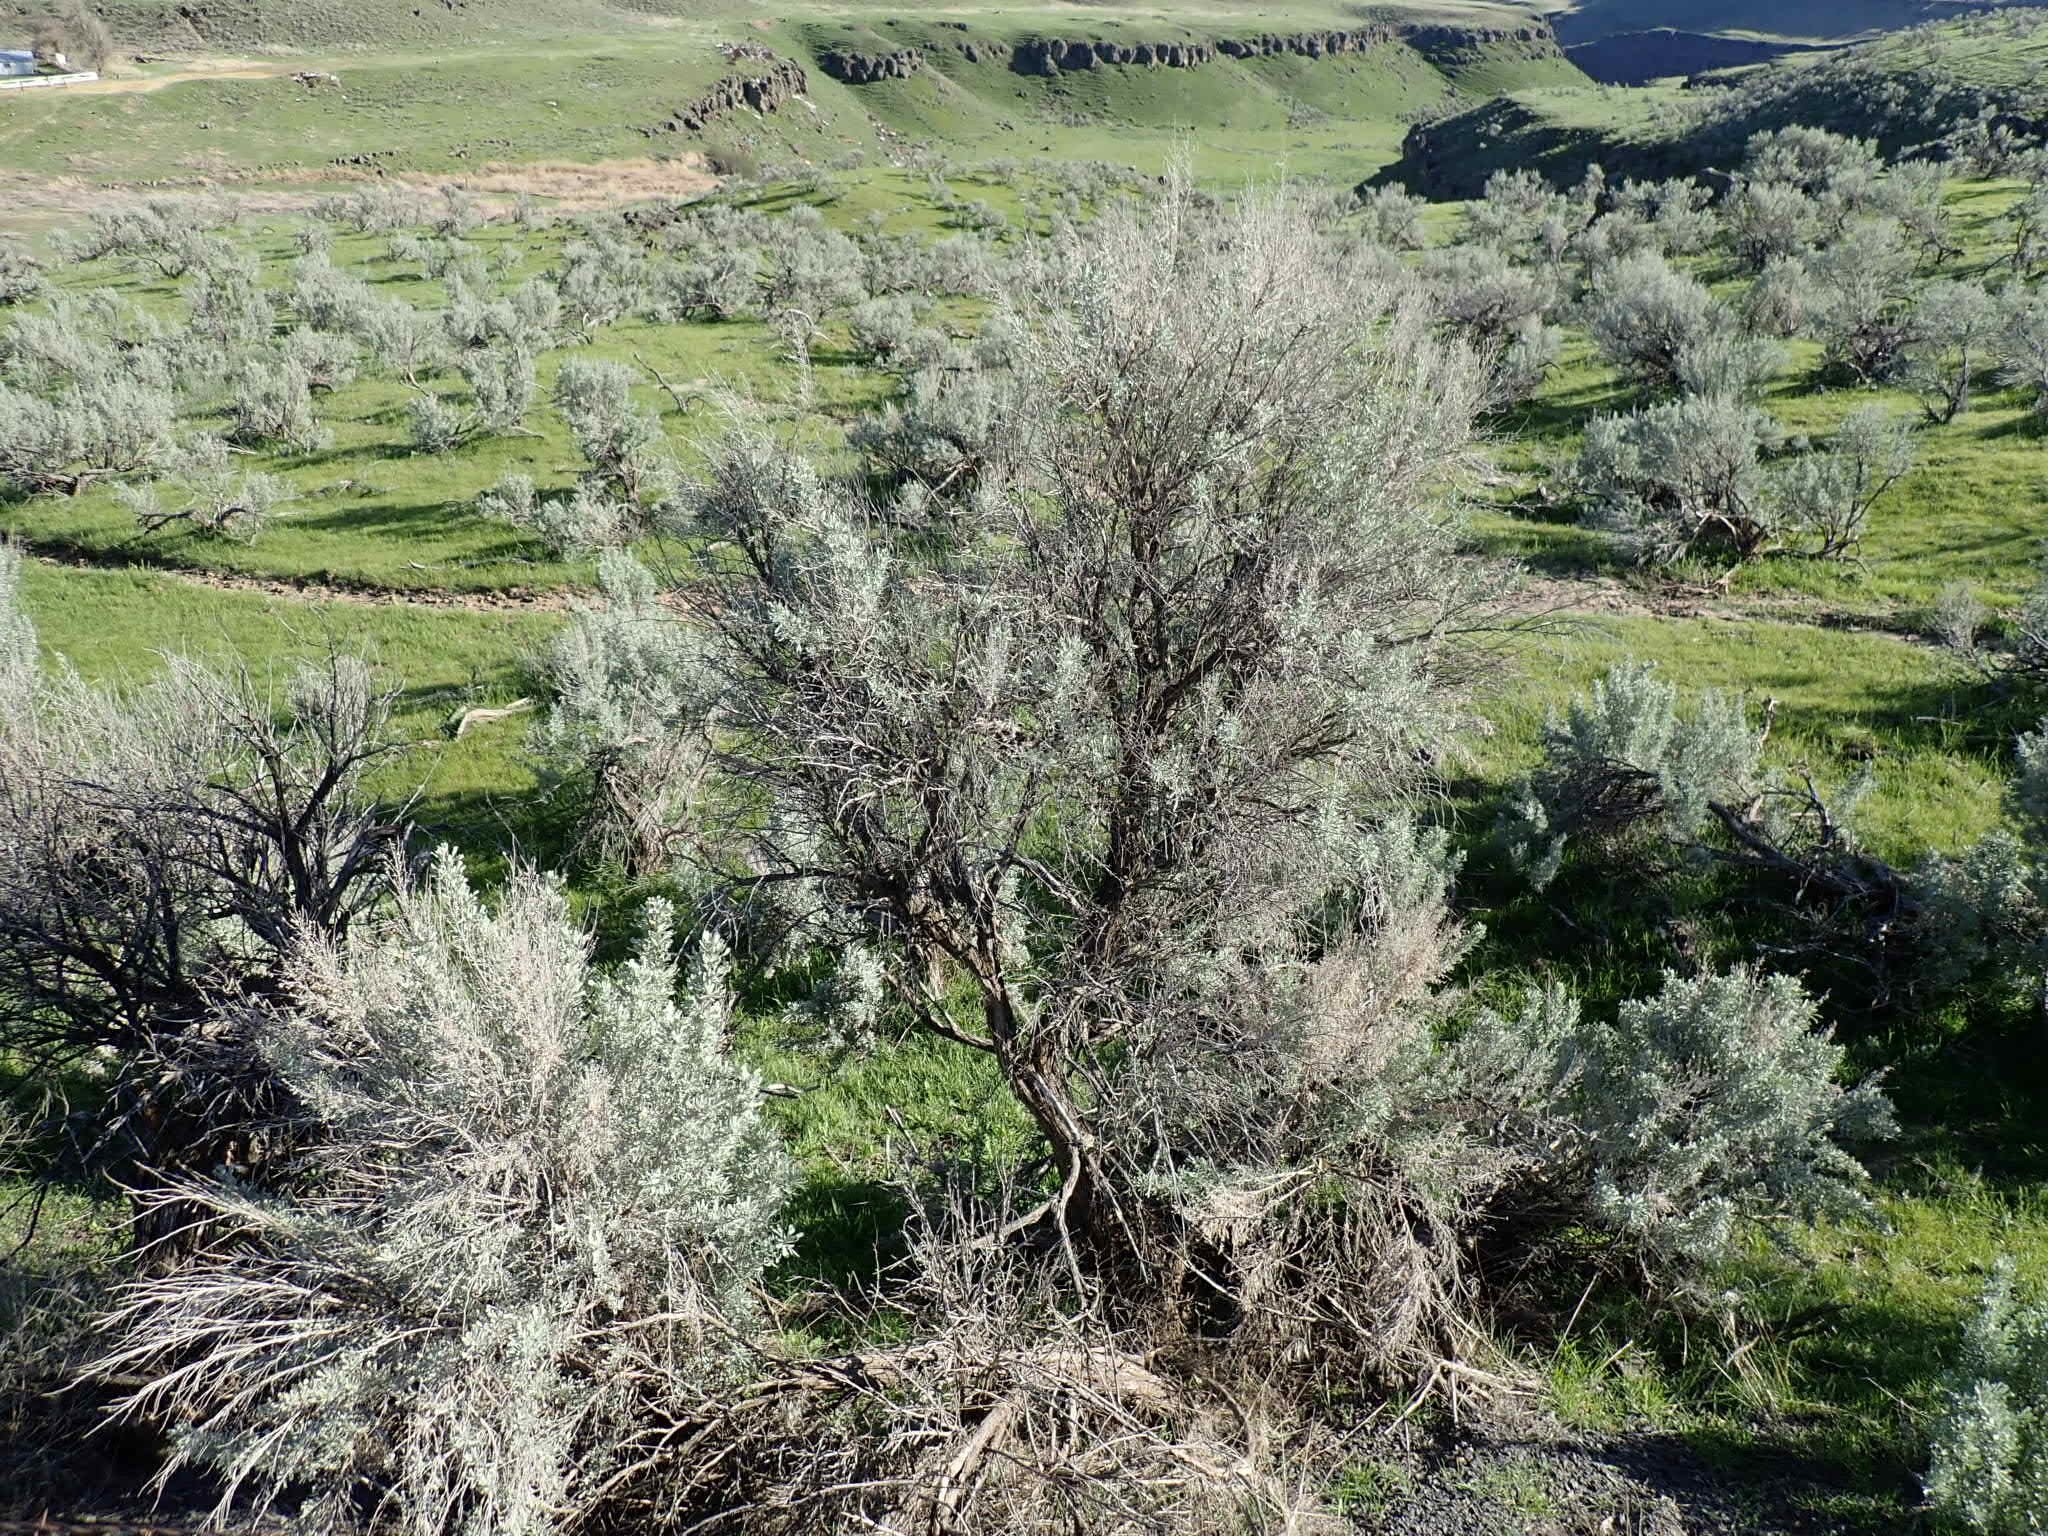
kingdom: Plantae
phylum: Tracheophyta
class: Magnoliopsida
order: Asterales
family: Asteraceae
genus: Artemisia
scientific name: Artemisia tridentata
